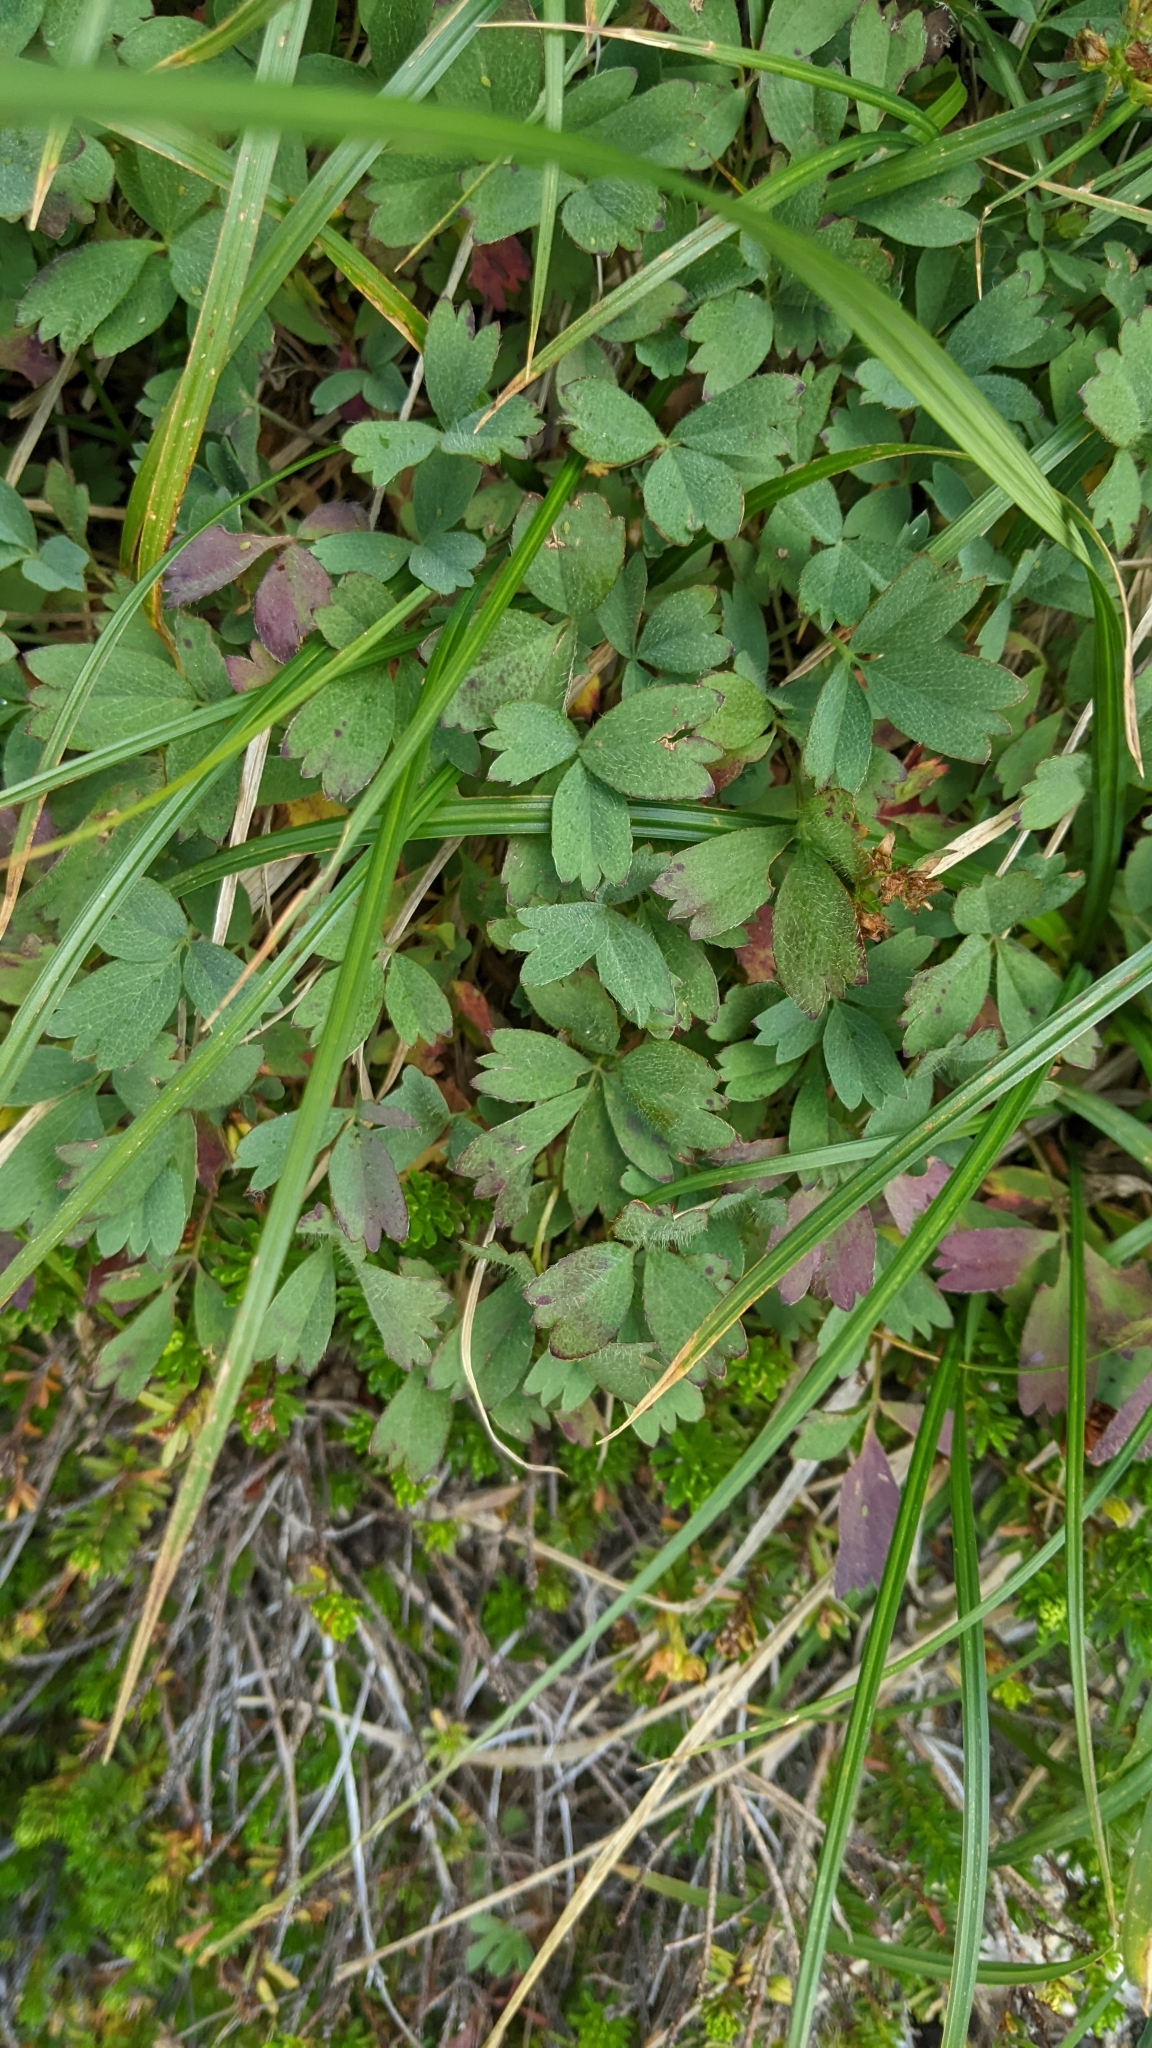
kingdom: Plantae
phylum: Tracheophyta
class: Magnoliopsida
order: Rosales
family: Rosaceae
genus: Sibbaldia
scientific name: Sibbaldia procumbens
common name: Creeping sibbaldia
